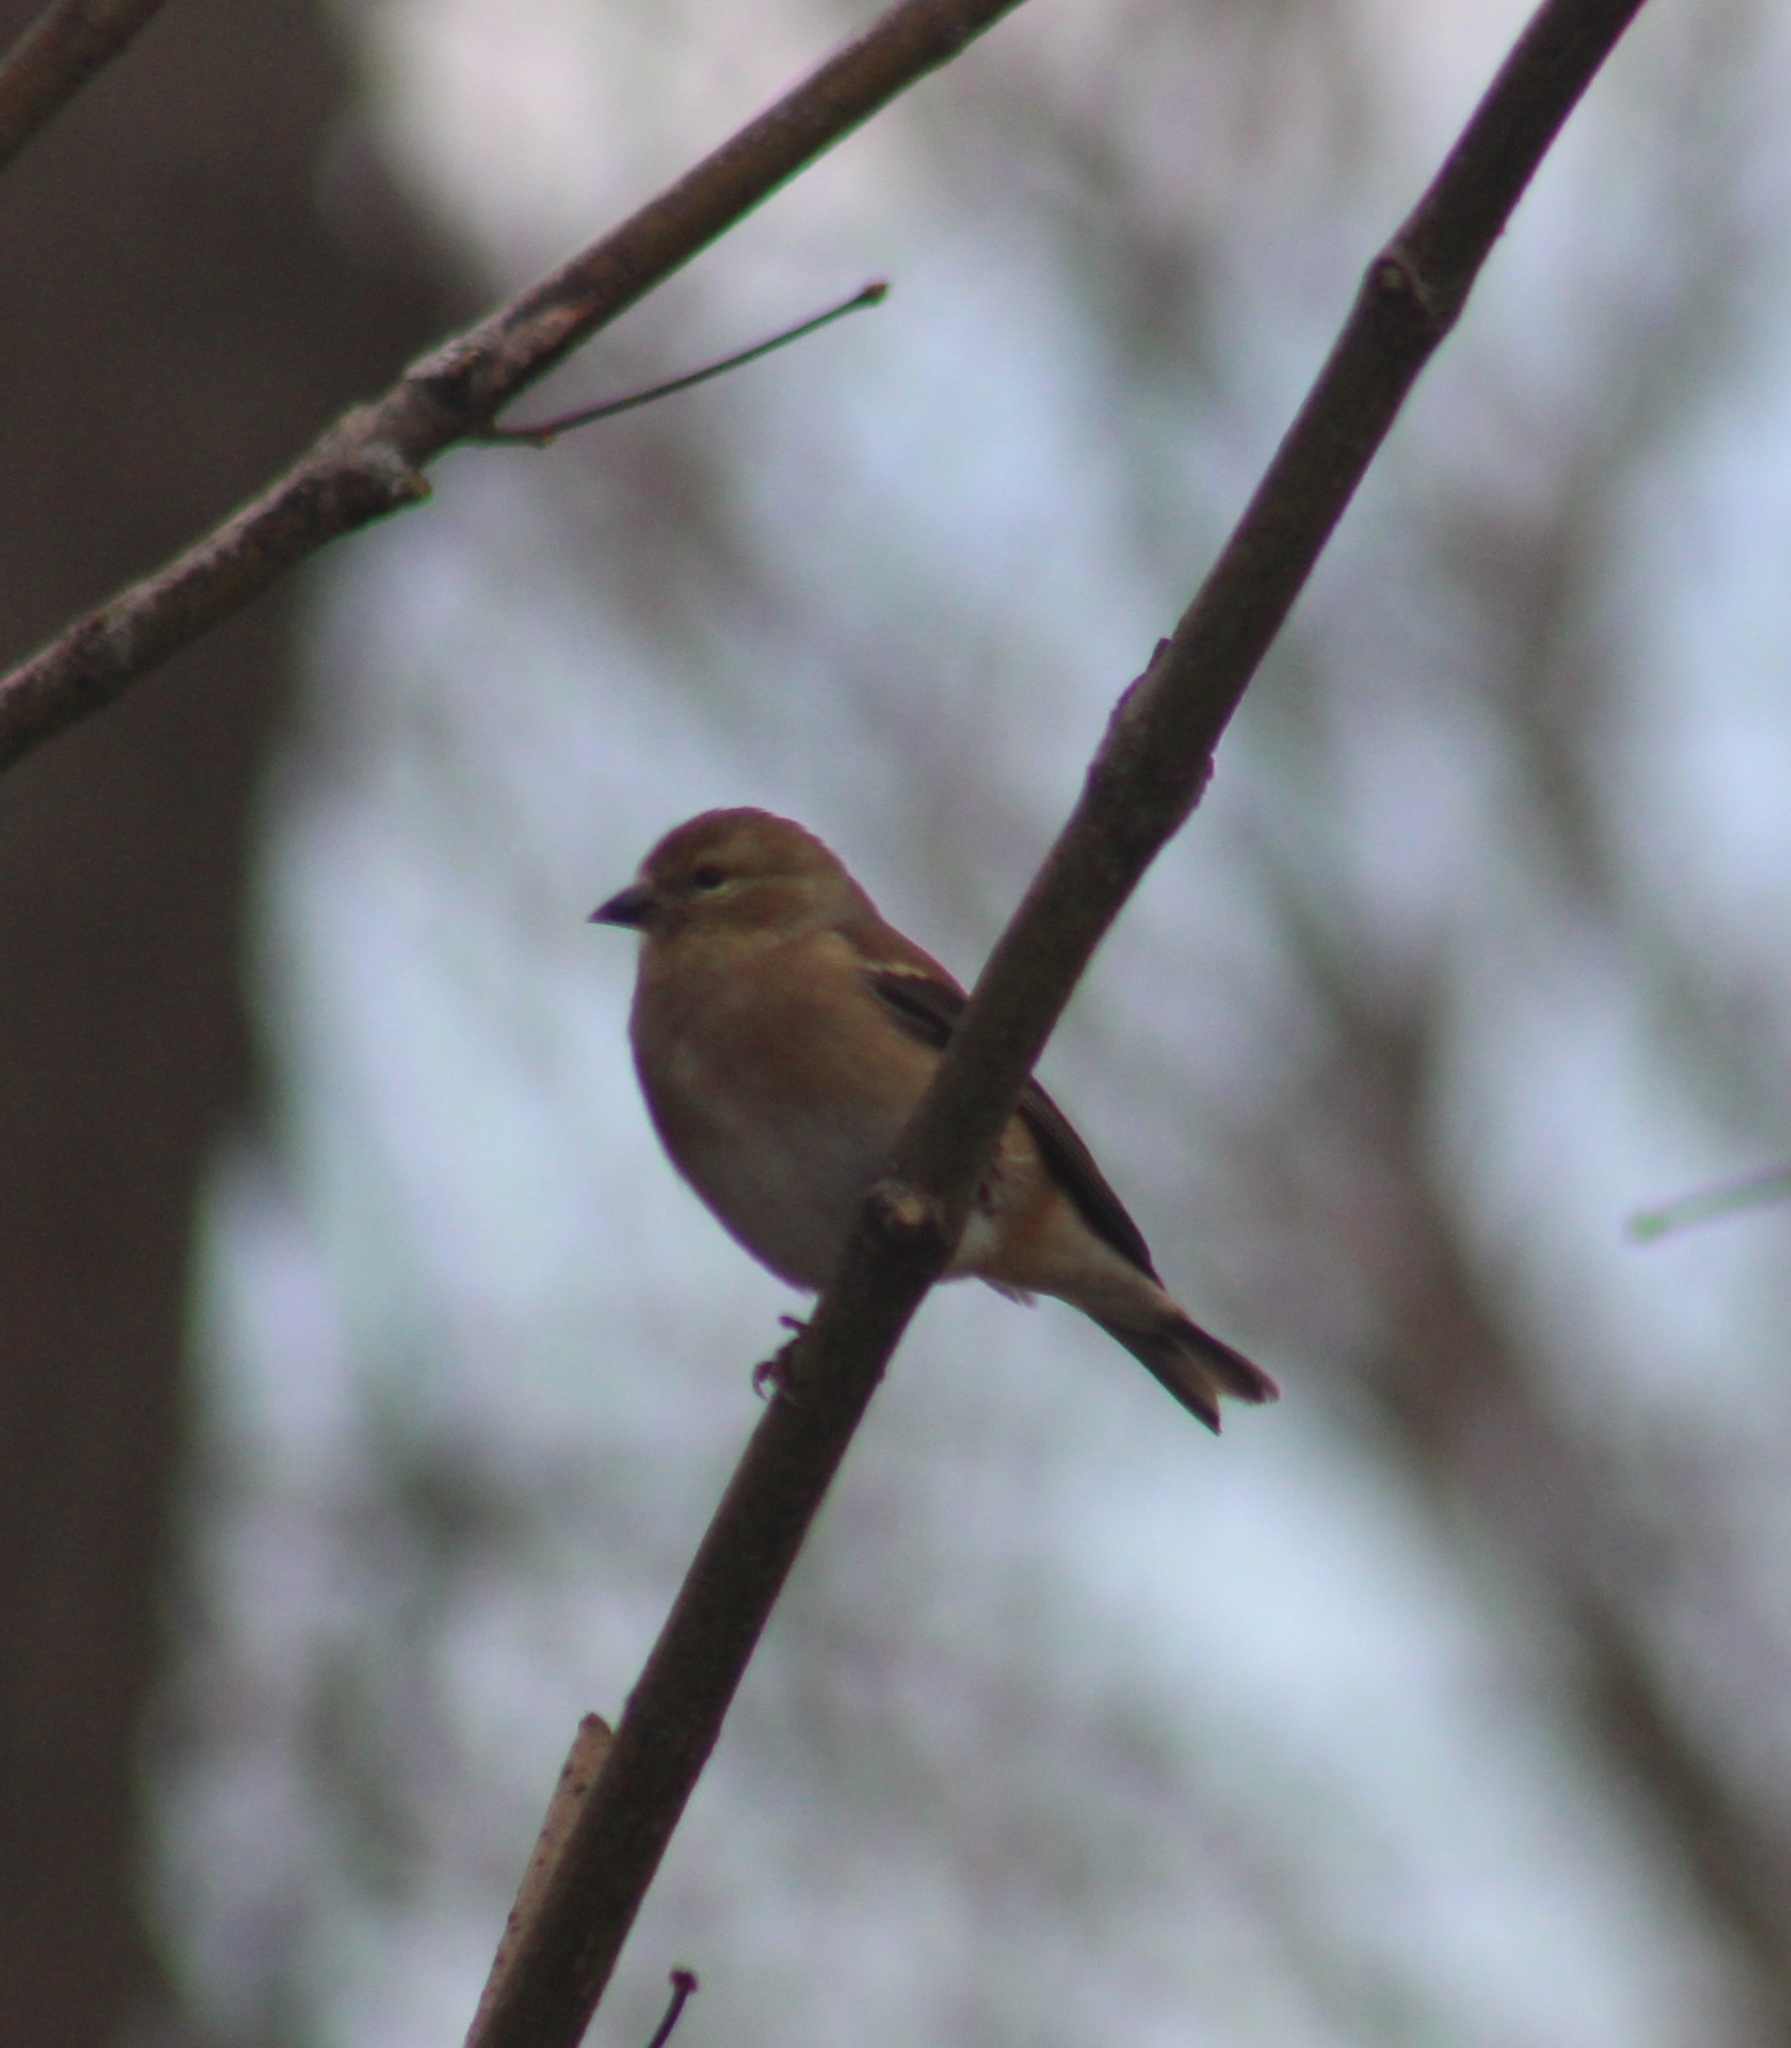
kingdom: Animalia
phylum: Chordata
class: Aves
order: Passeriformes
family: Fringillidae
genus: Spinus
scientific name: Spinus tristis
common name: American goldfinch
